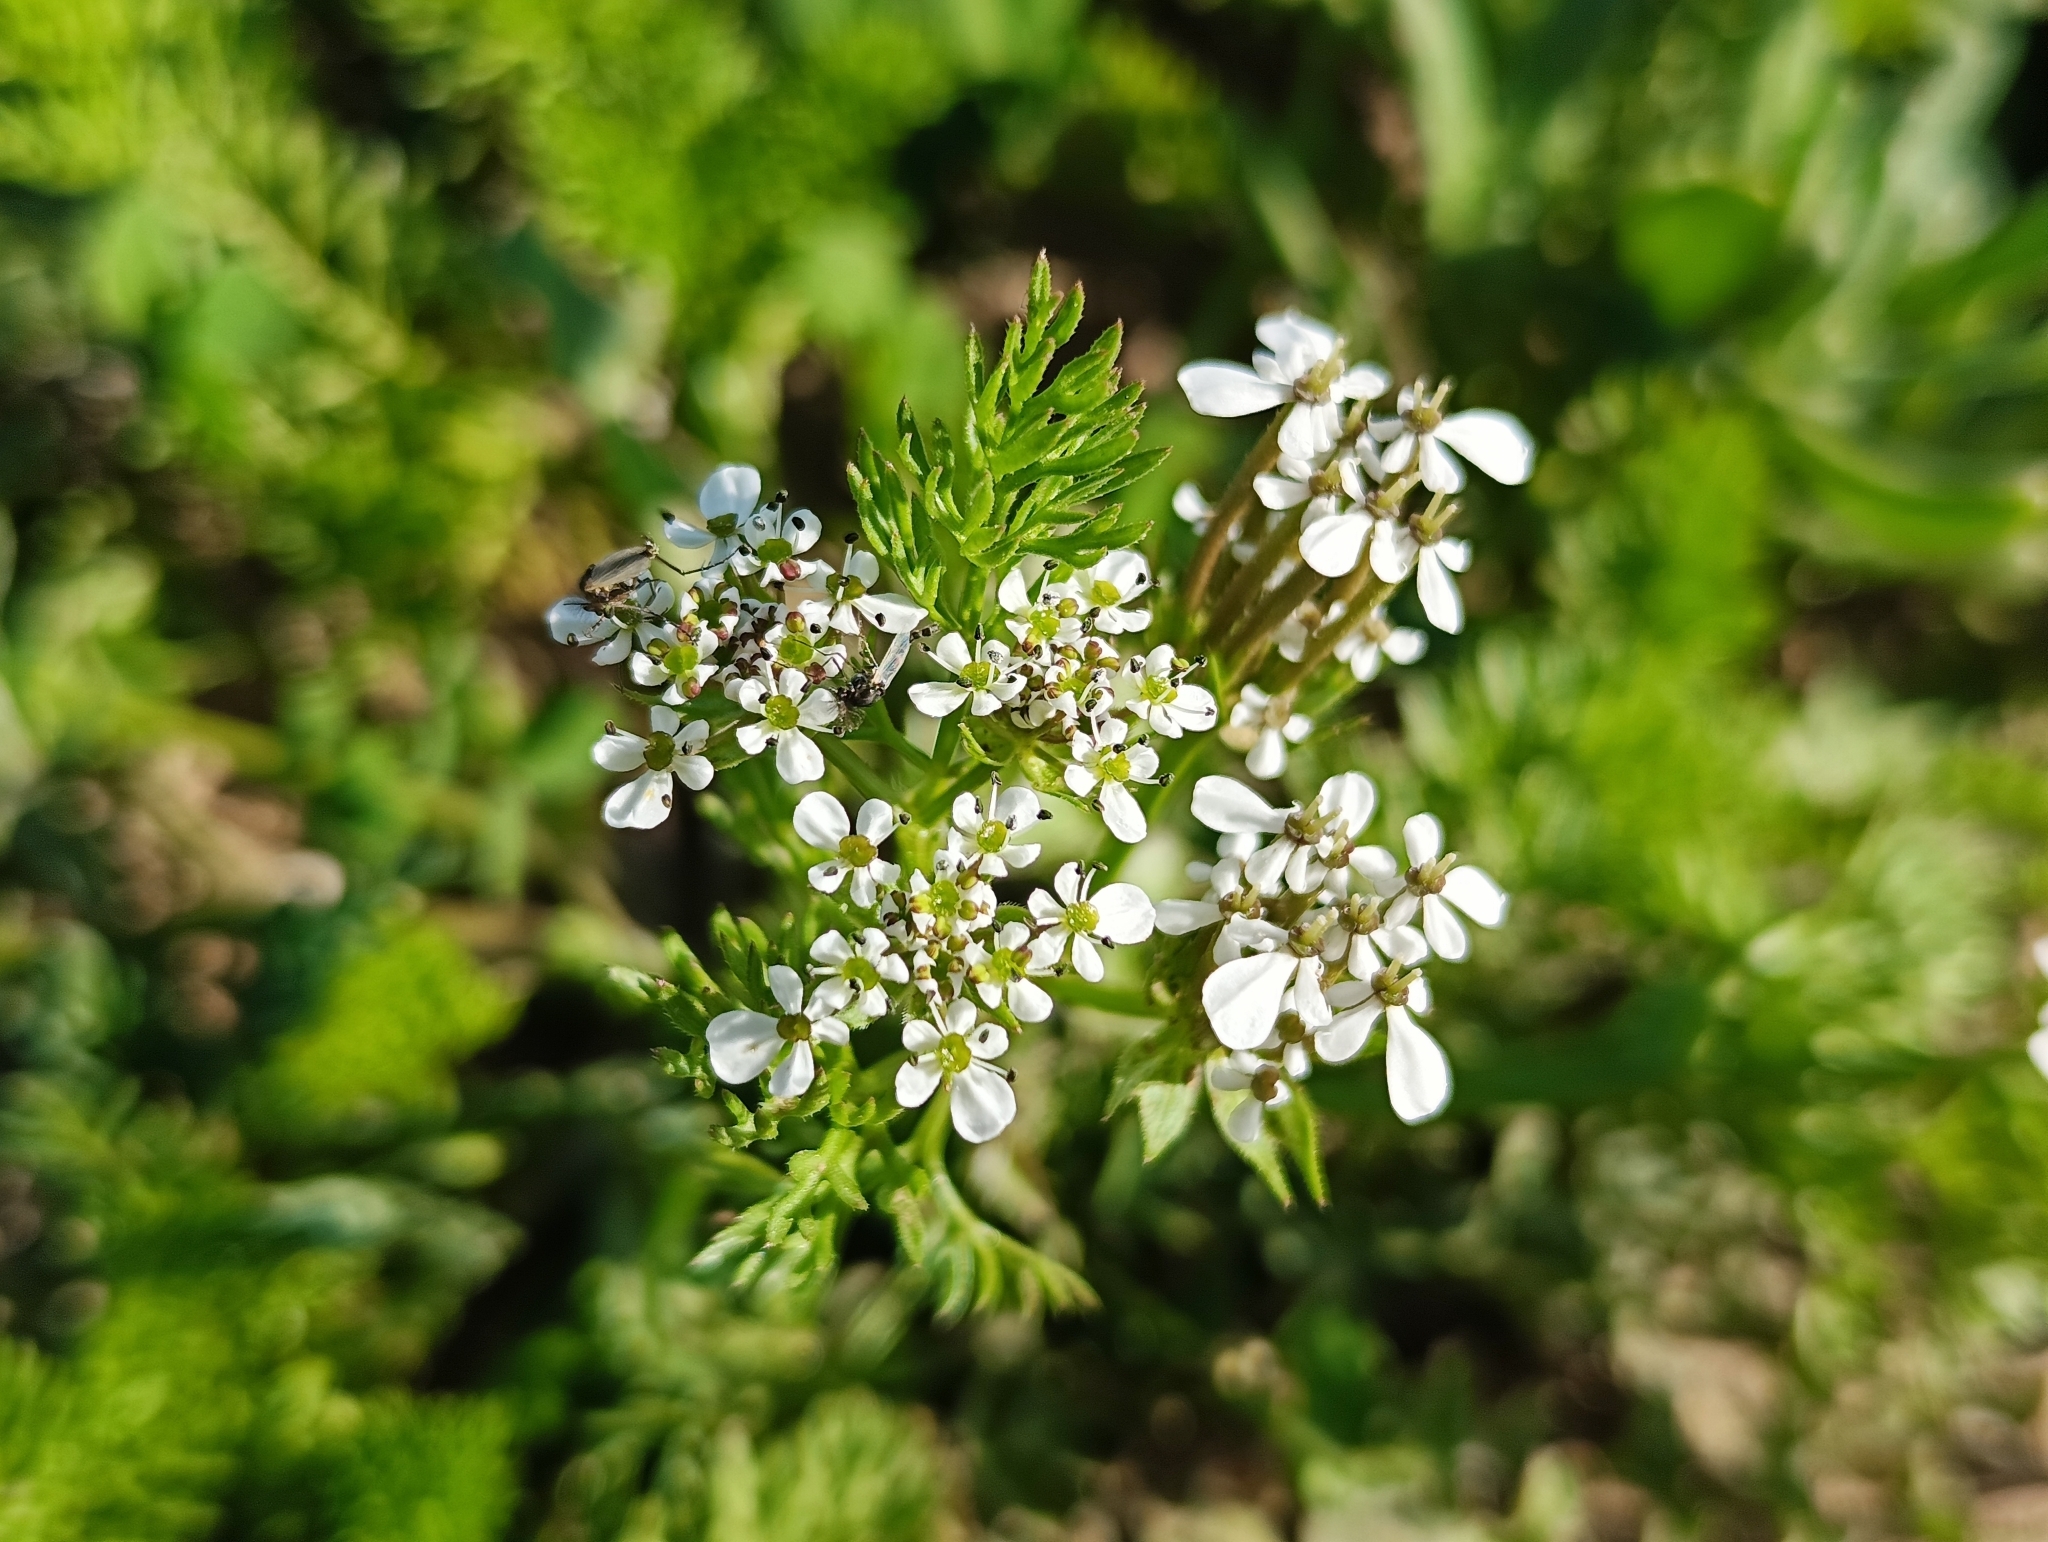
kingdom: Plantae
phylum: Tracheophyta
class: Magnoliopsida
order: Apiales
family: Apiaceae
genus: Scandix
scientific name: Scandix pecten-veneris
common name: Shepherd's-needle
